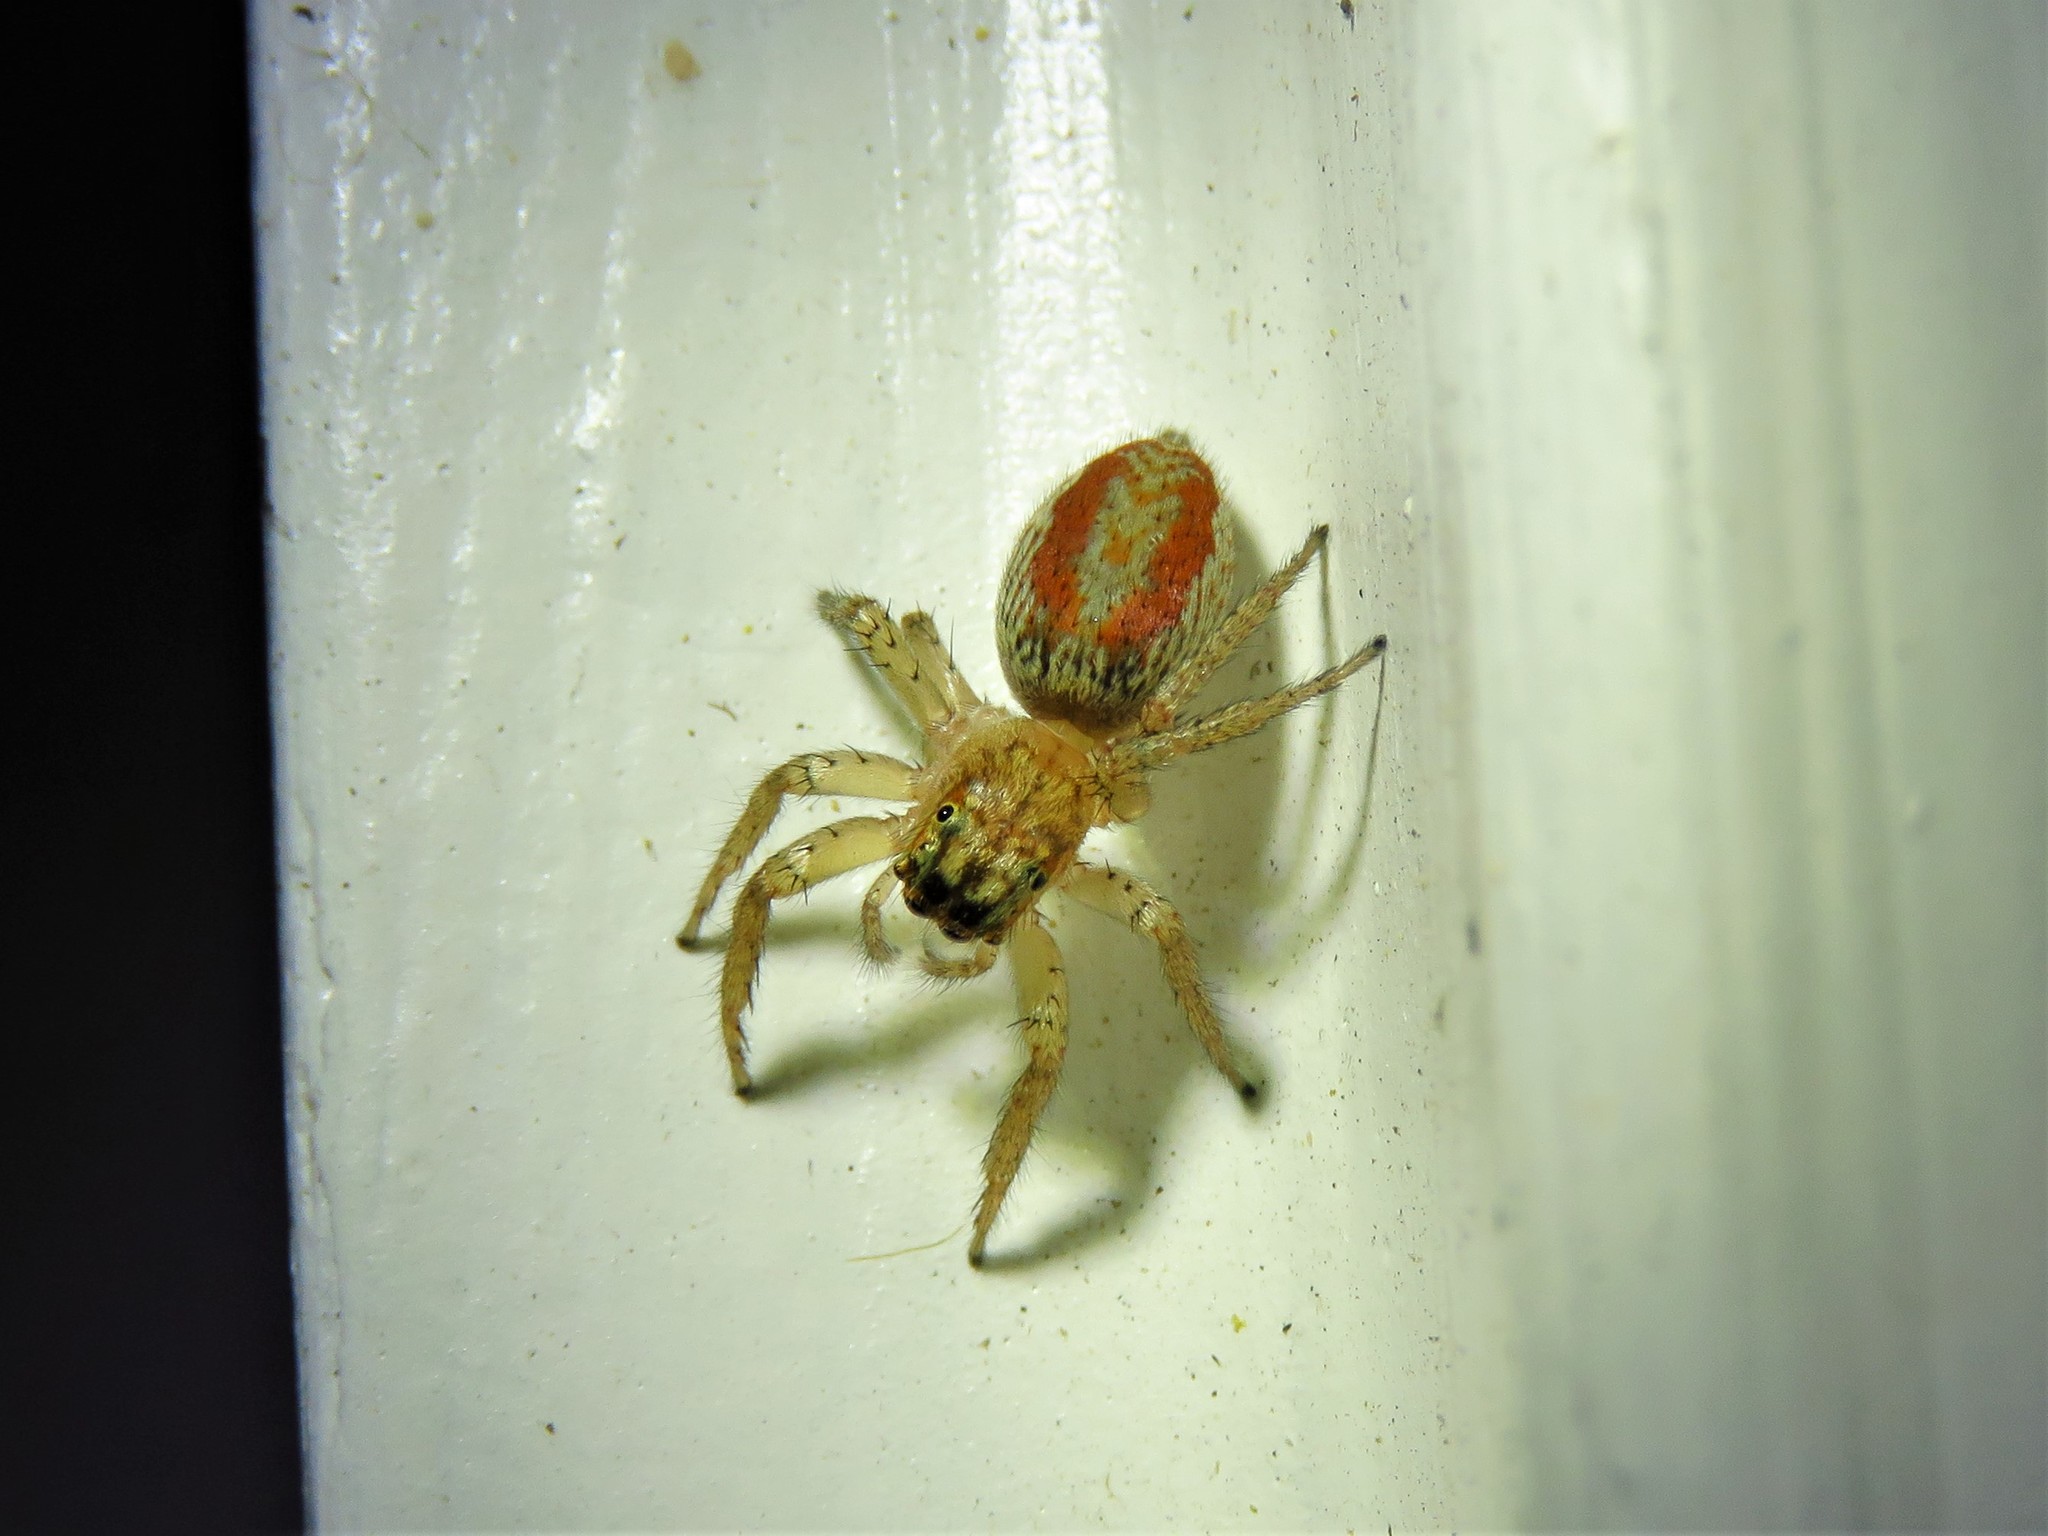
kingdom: Animalia
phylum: Arthropoda
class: Arachnida
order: Araneae
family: Salticidae
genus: Maevia
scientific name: Maevia inclemens
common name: Dimorphic jumper
